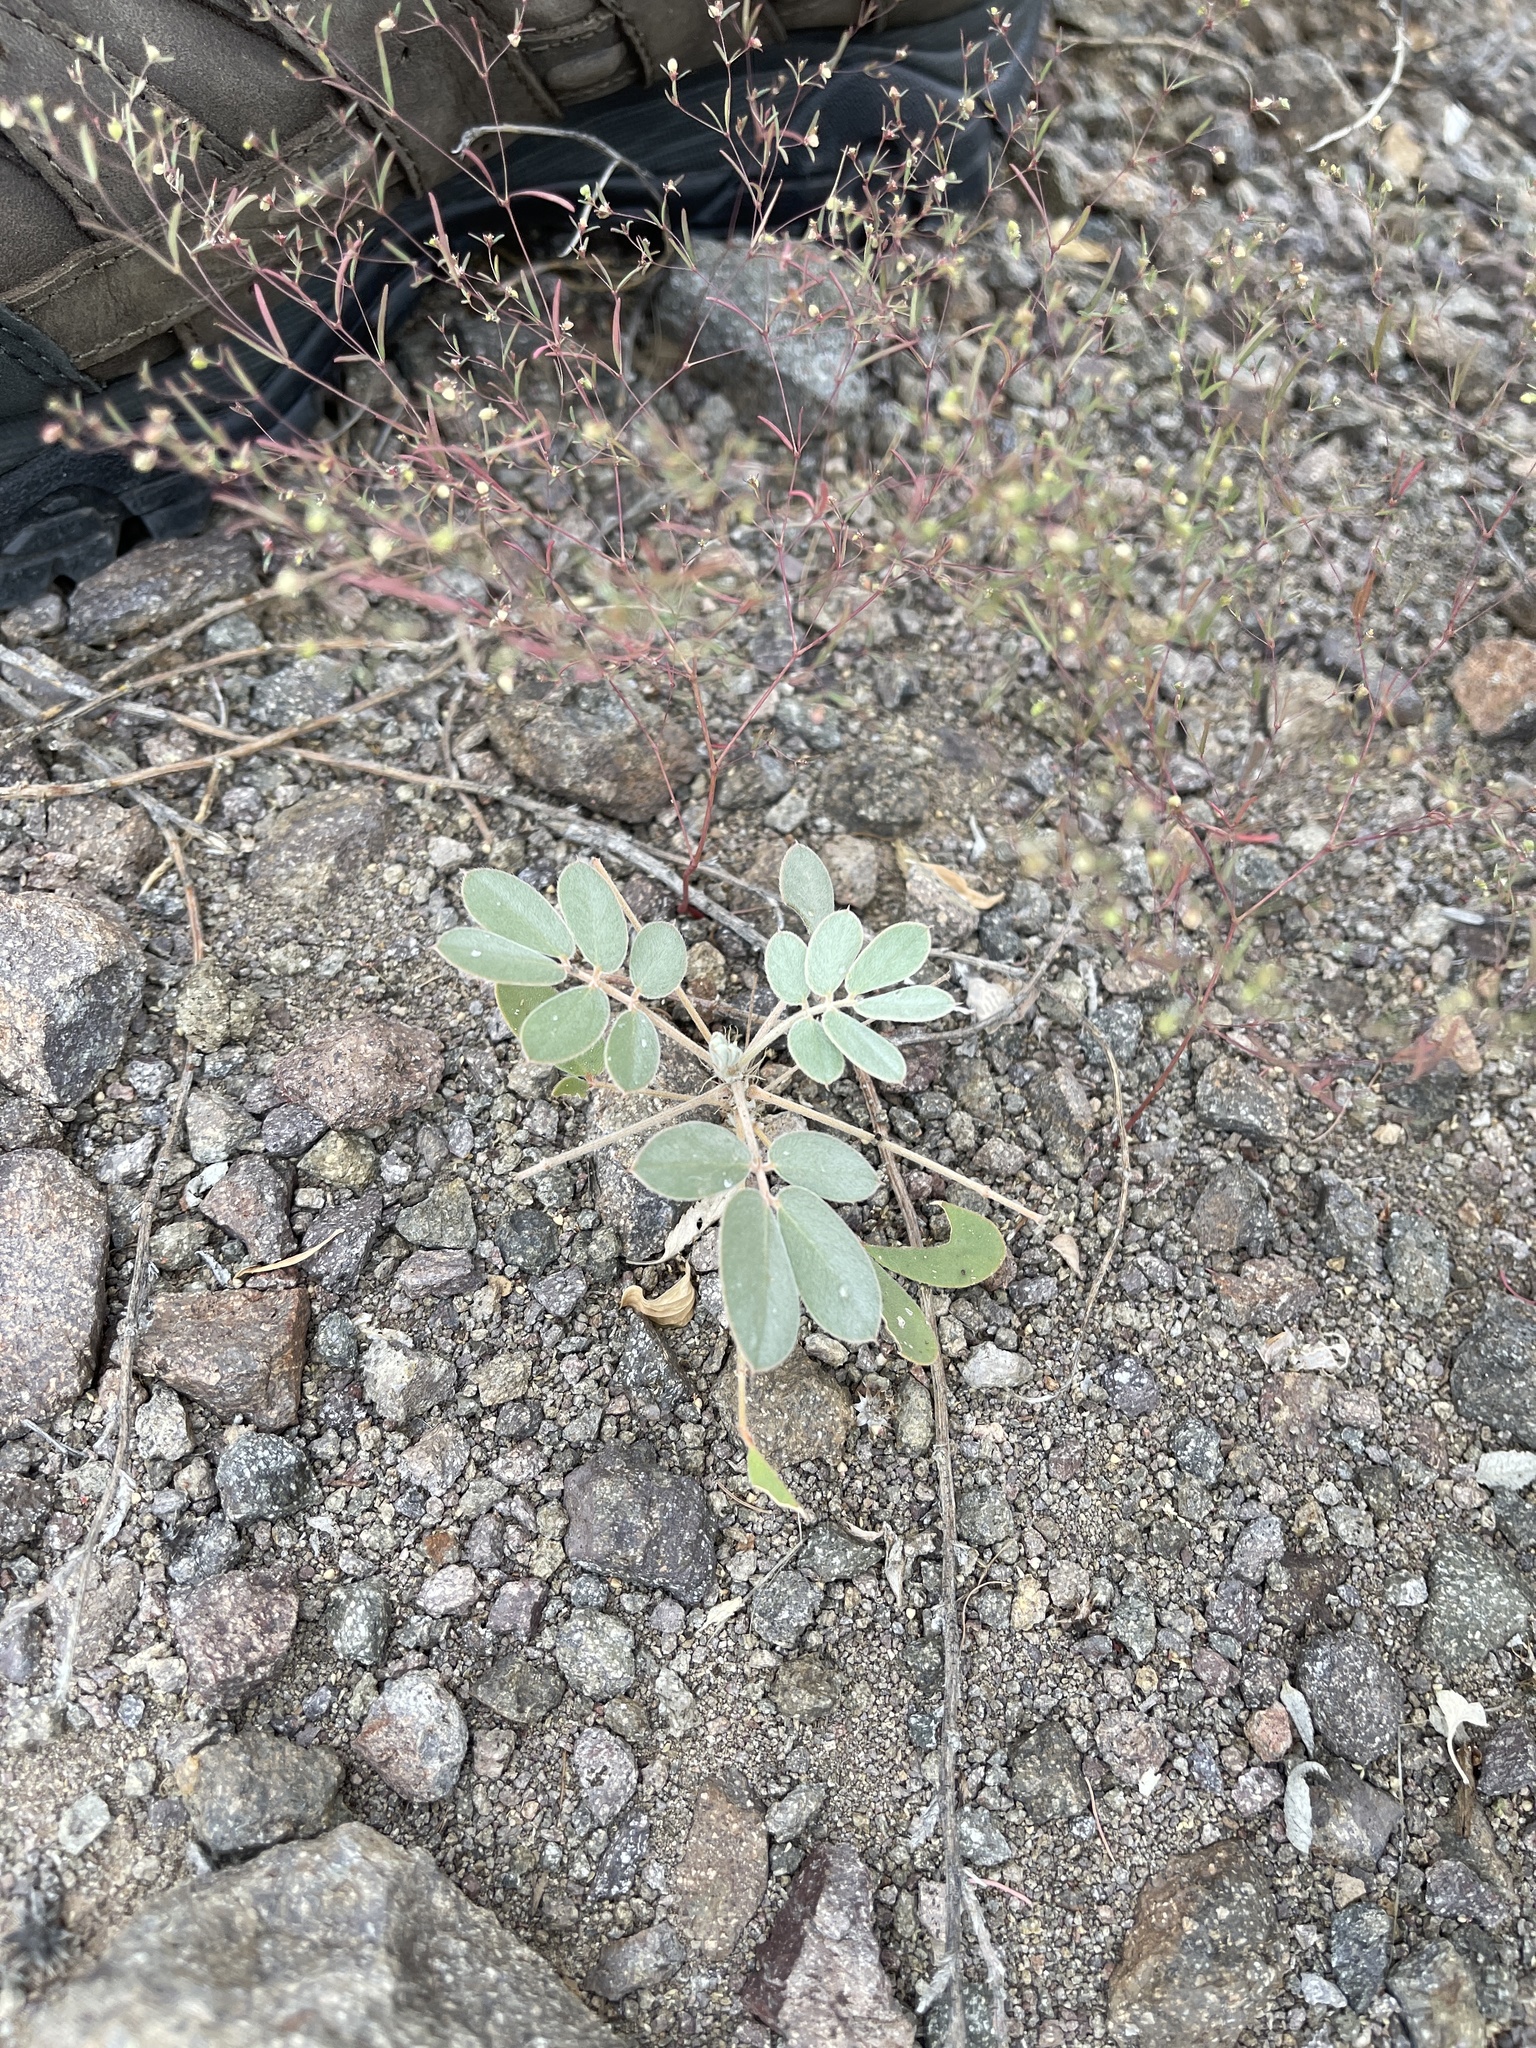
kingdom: Plantae
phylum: Tracheophyta
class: Magnoliopsida
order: Fabales
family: Fabaceae
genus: Senna
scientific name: Senna covesii
